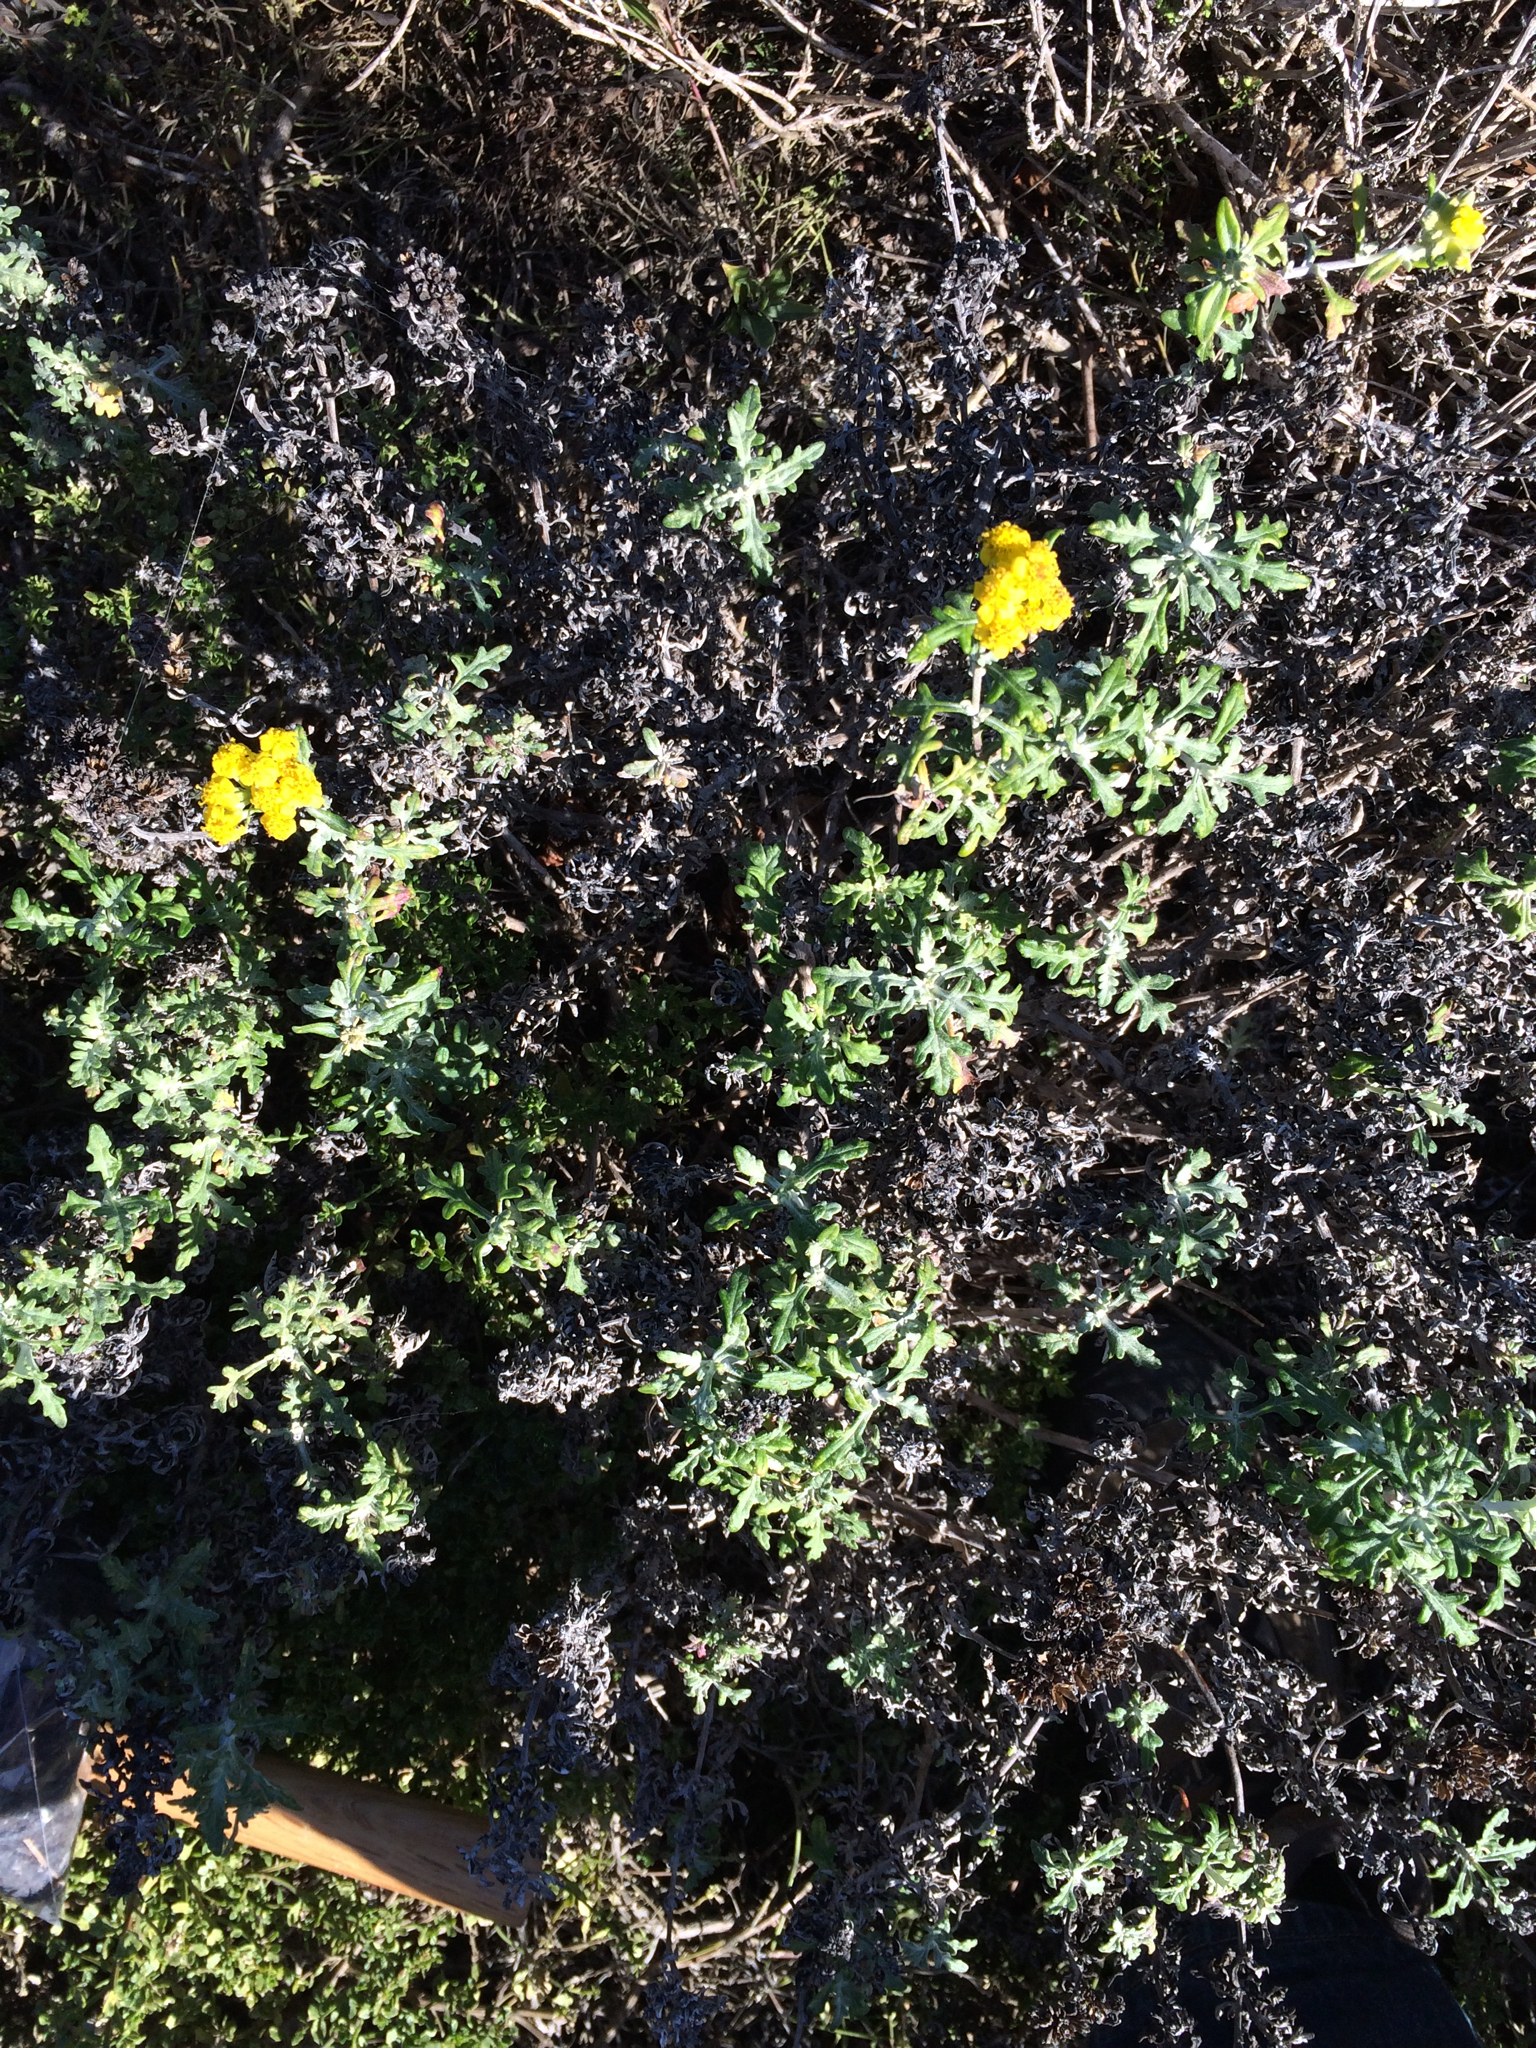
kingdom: Plantae
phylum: Tracheophyta
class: Magnoliopsida
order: Asterales
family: Asteraceae
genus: Eriophyllum
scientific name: Eriophyllum staechadifolium
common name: Lizardtail
